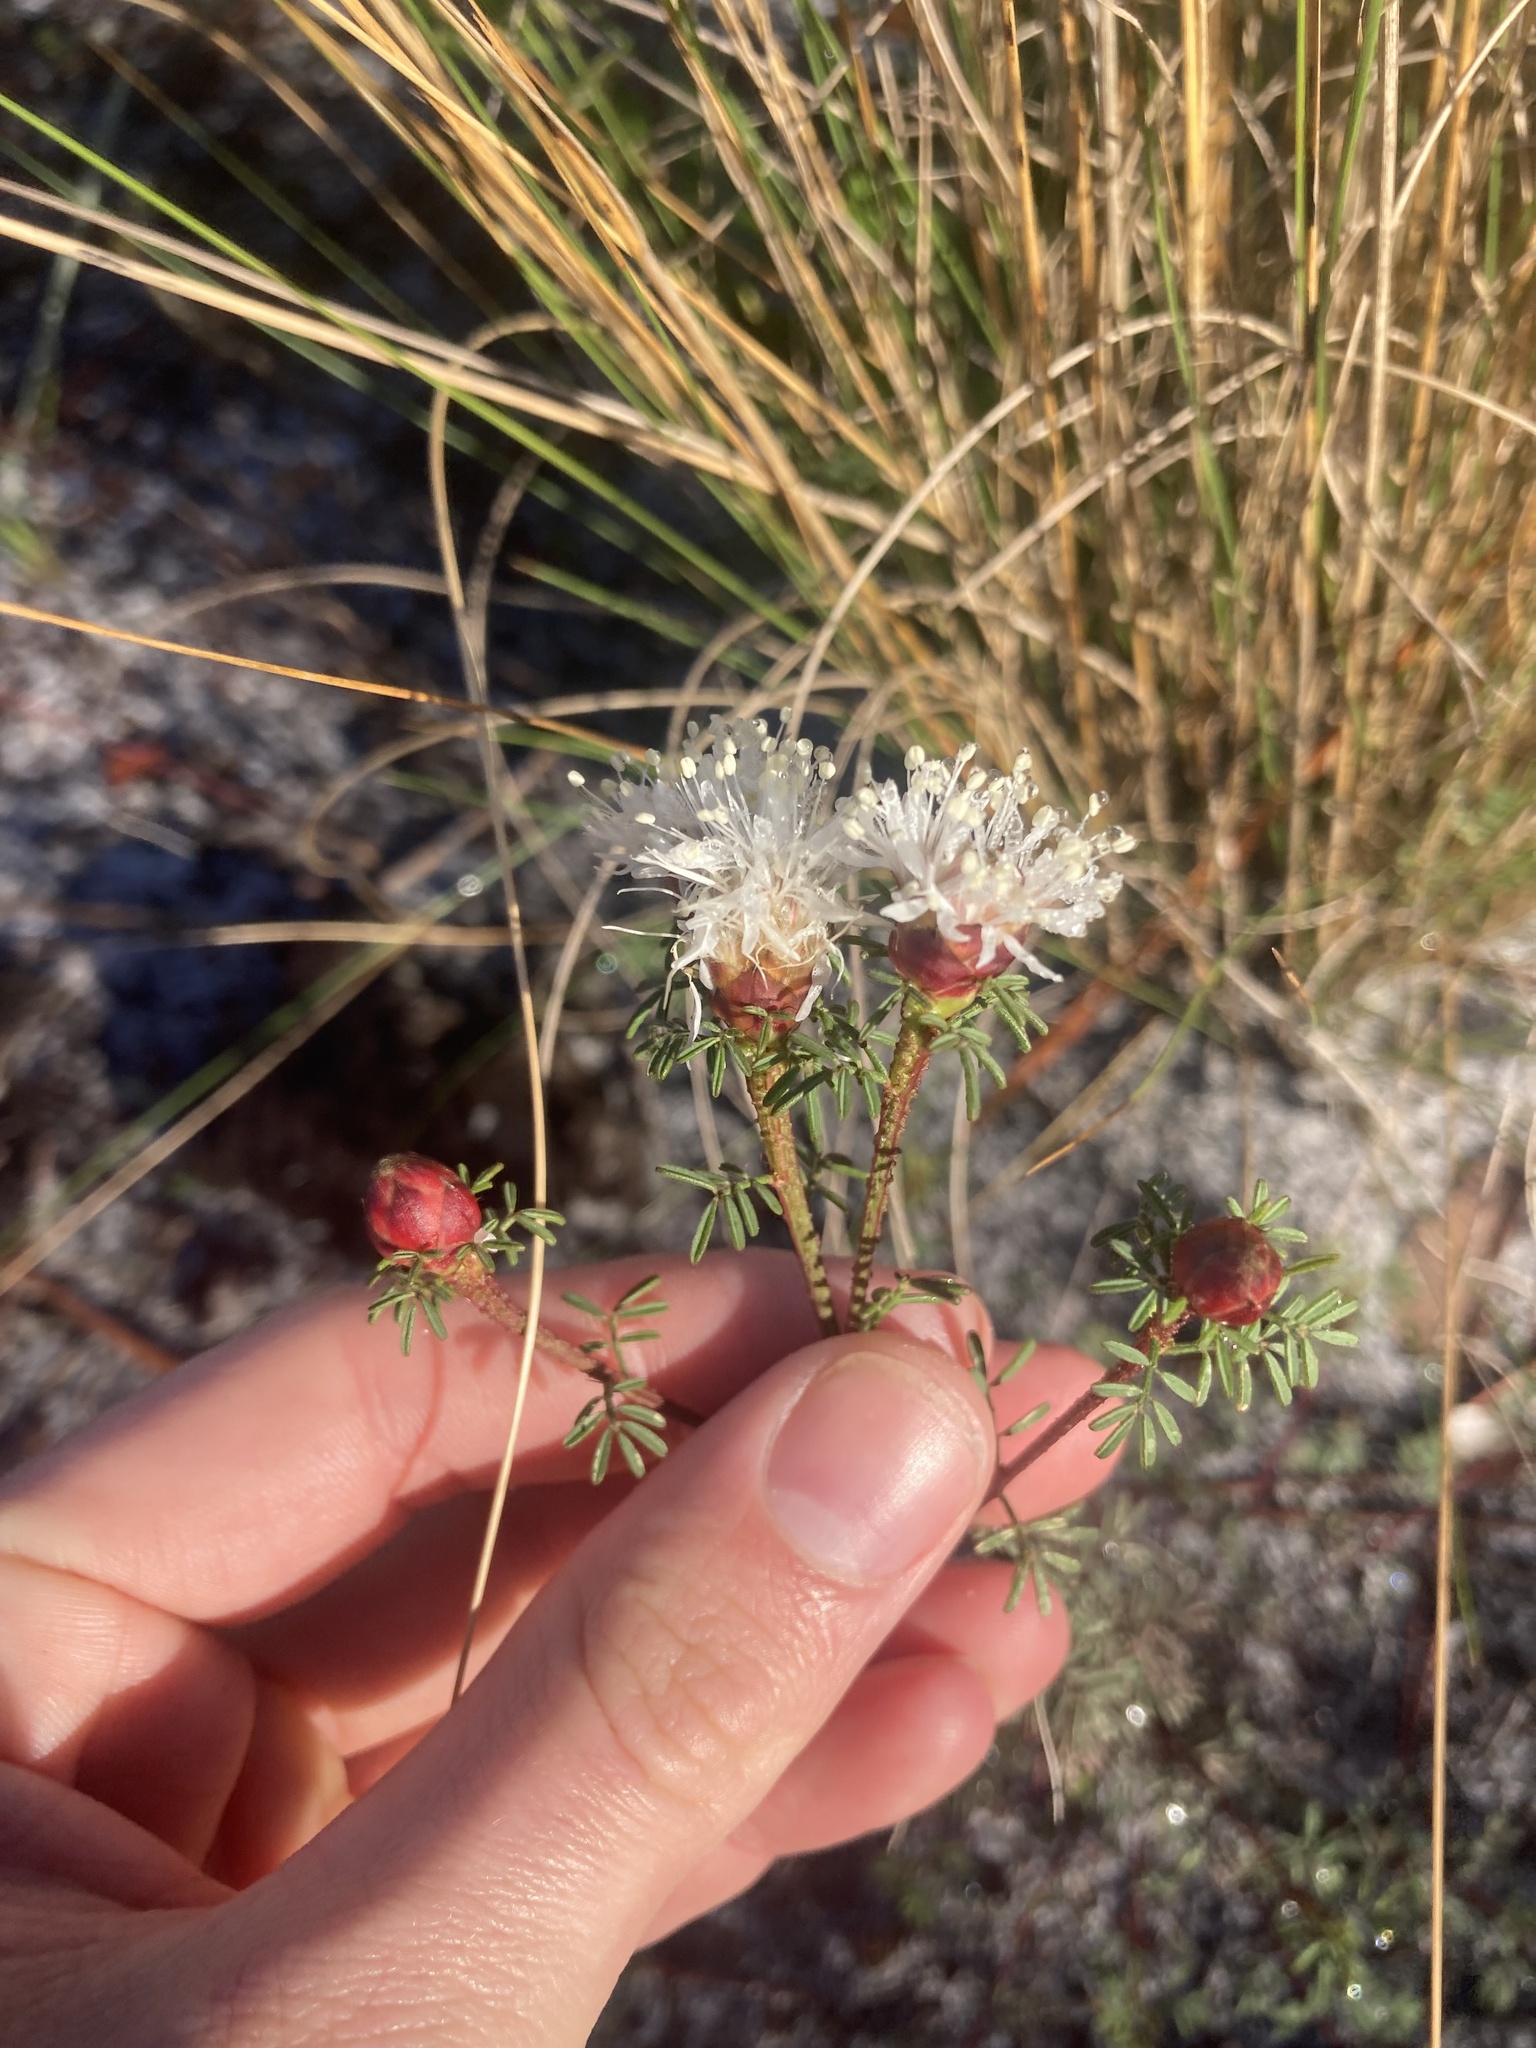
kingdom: Plantae
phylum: Tracheophyta
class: Magnoliopsida
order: Fabales
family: Fabaceae
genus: Dalea
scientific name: Dalea pinnata
